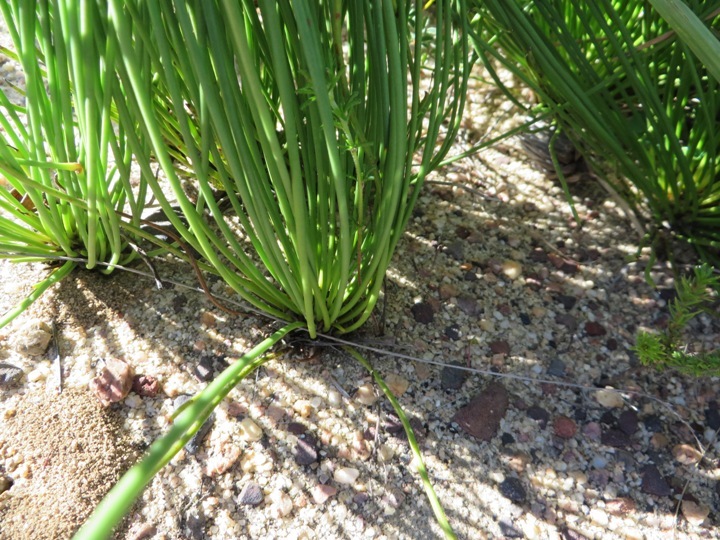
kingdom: Plantae
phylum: Tracheophyta
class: Magnoliopsida
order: Proteales
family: Proteaceae
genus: Protea
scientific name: Protea lorea
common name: Thong-leaf sugarbush
